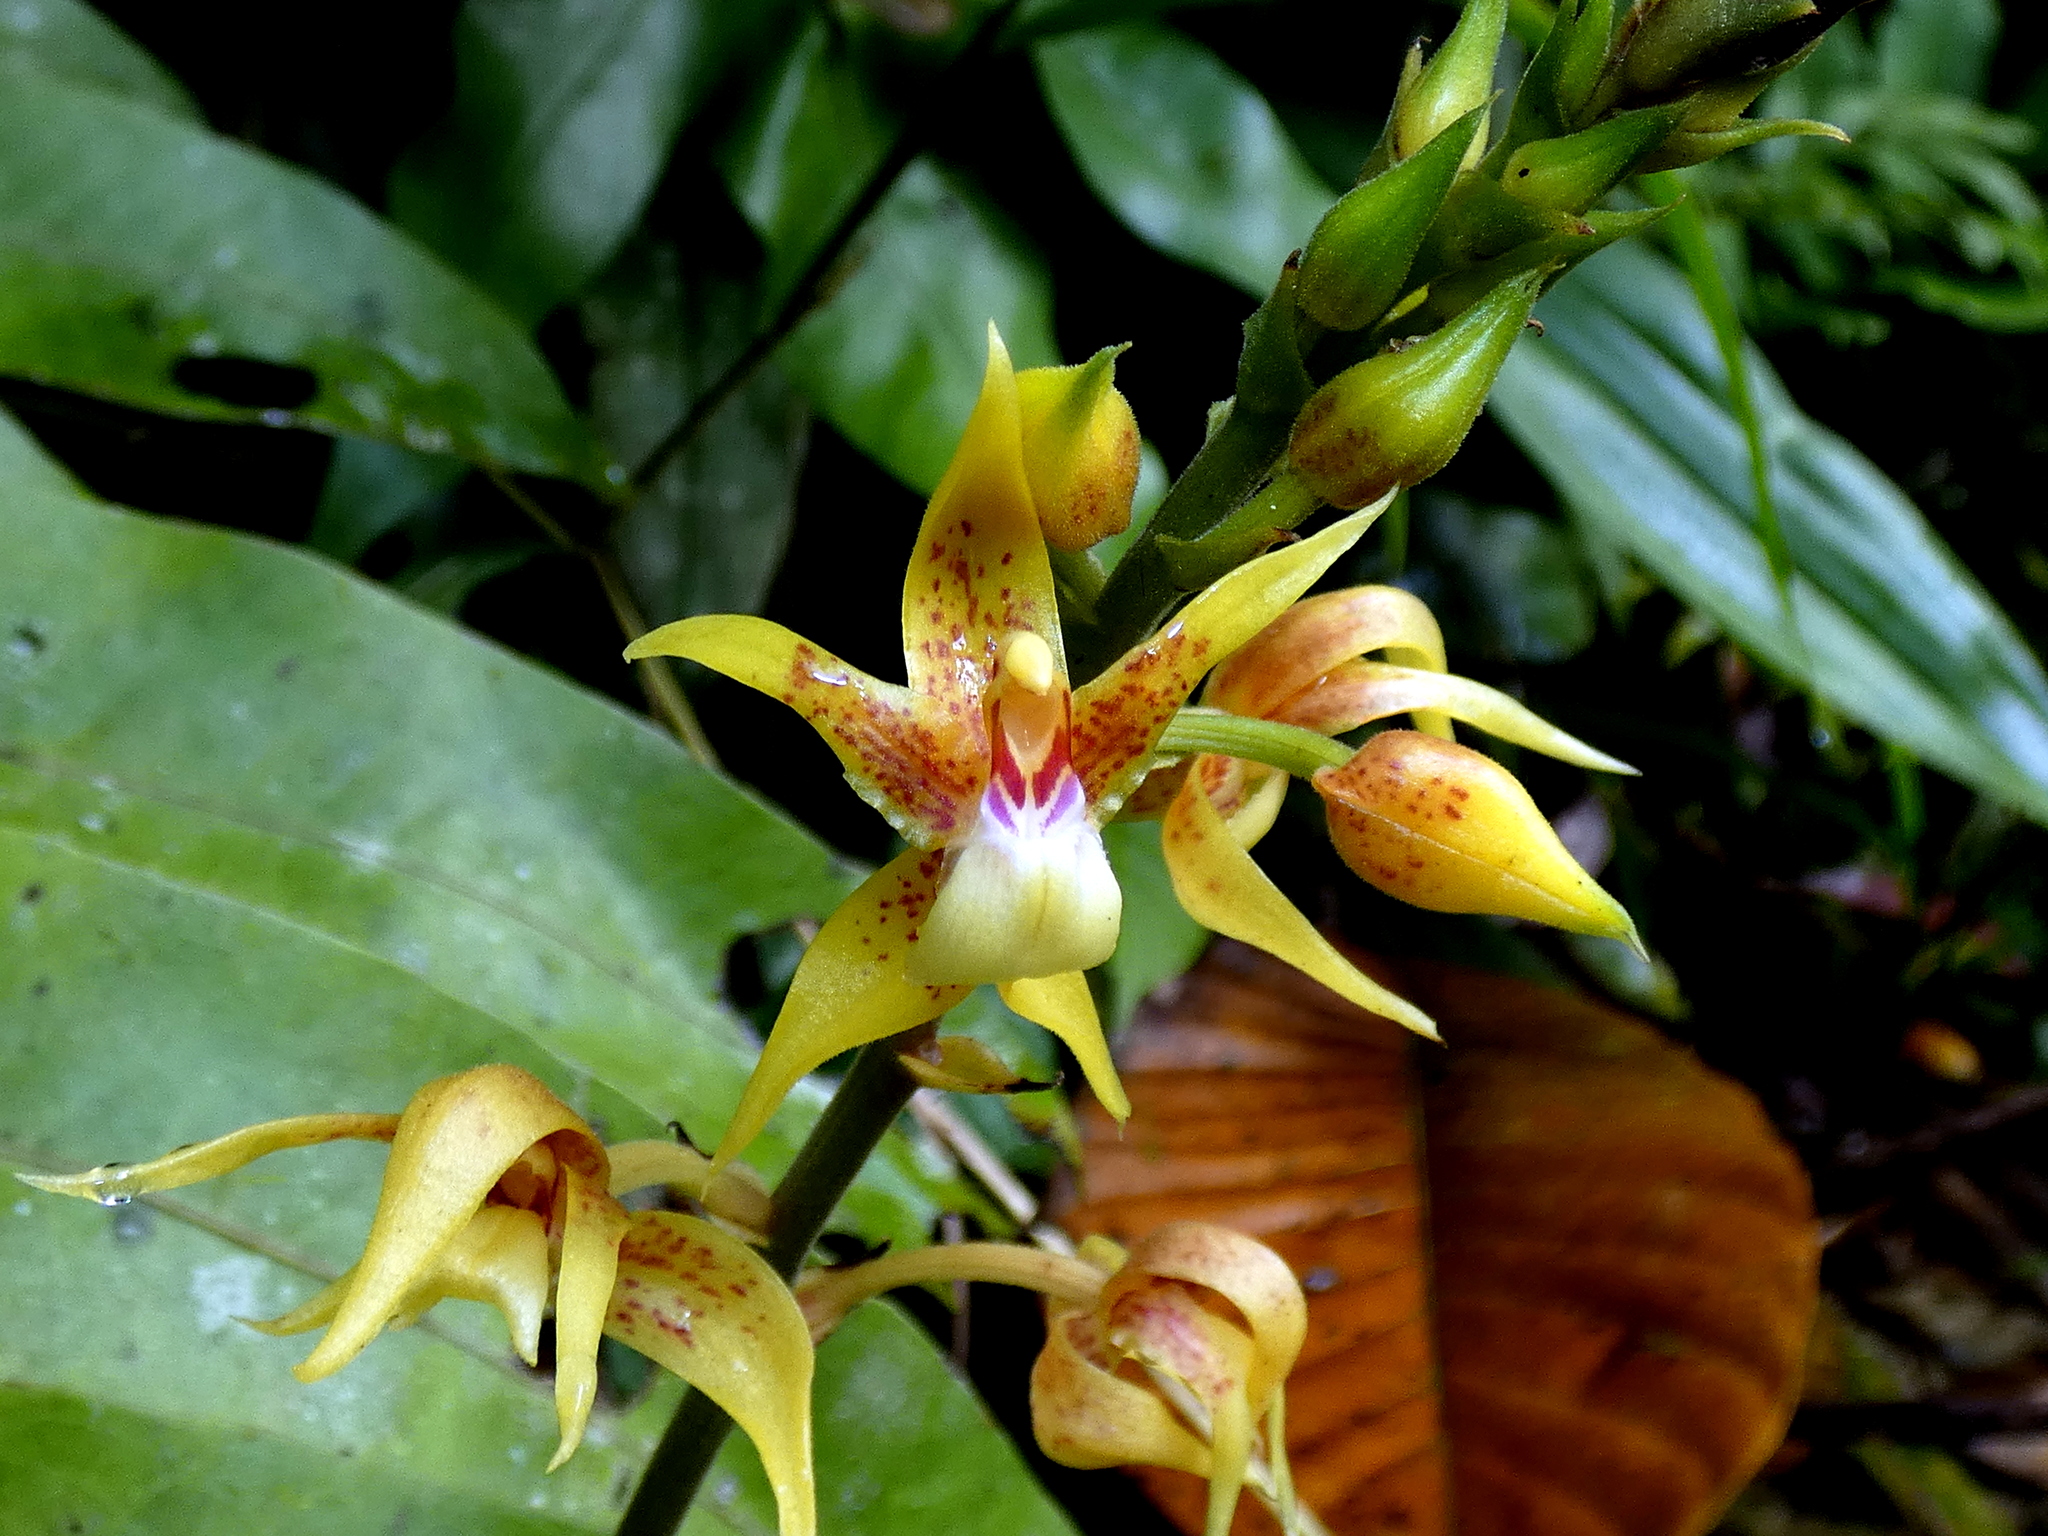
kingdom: Plantae
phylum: Tracheophyta
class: Liliopsida
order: Asparagales
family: Orchidaceae
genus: Plocoglottis
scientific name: Plocoglottis plicata
